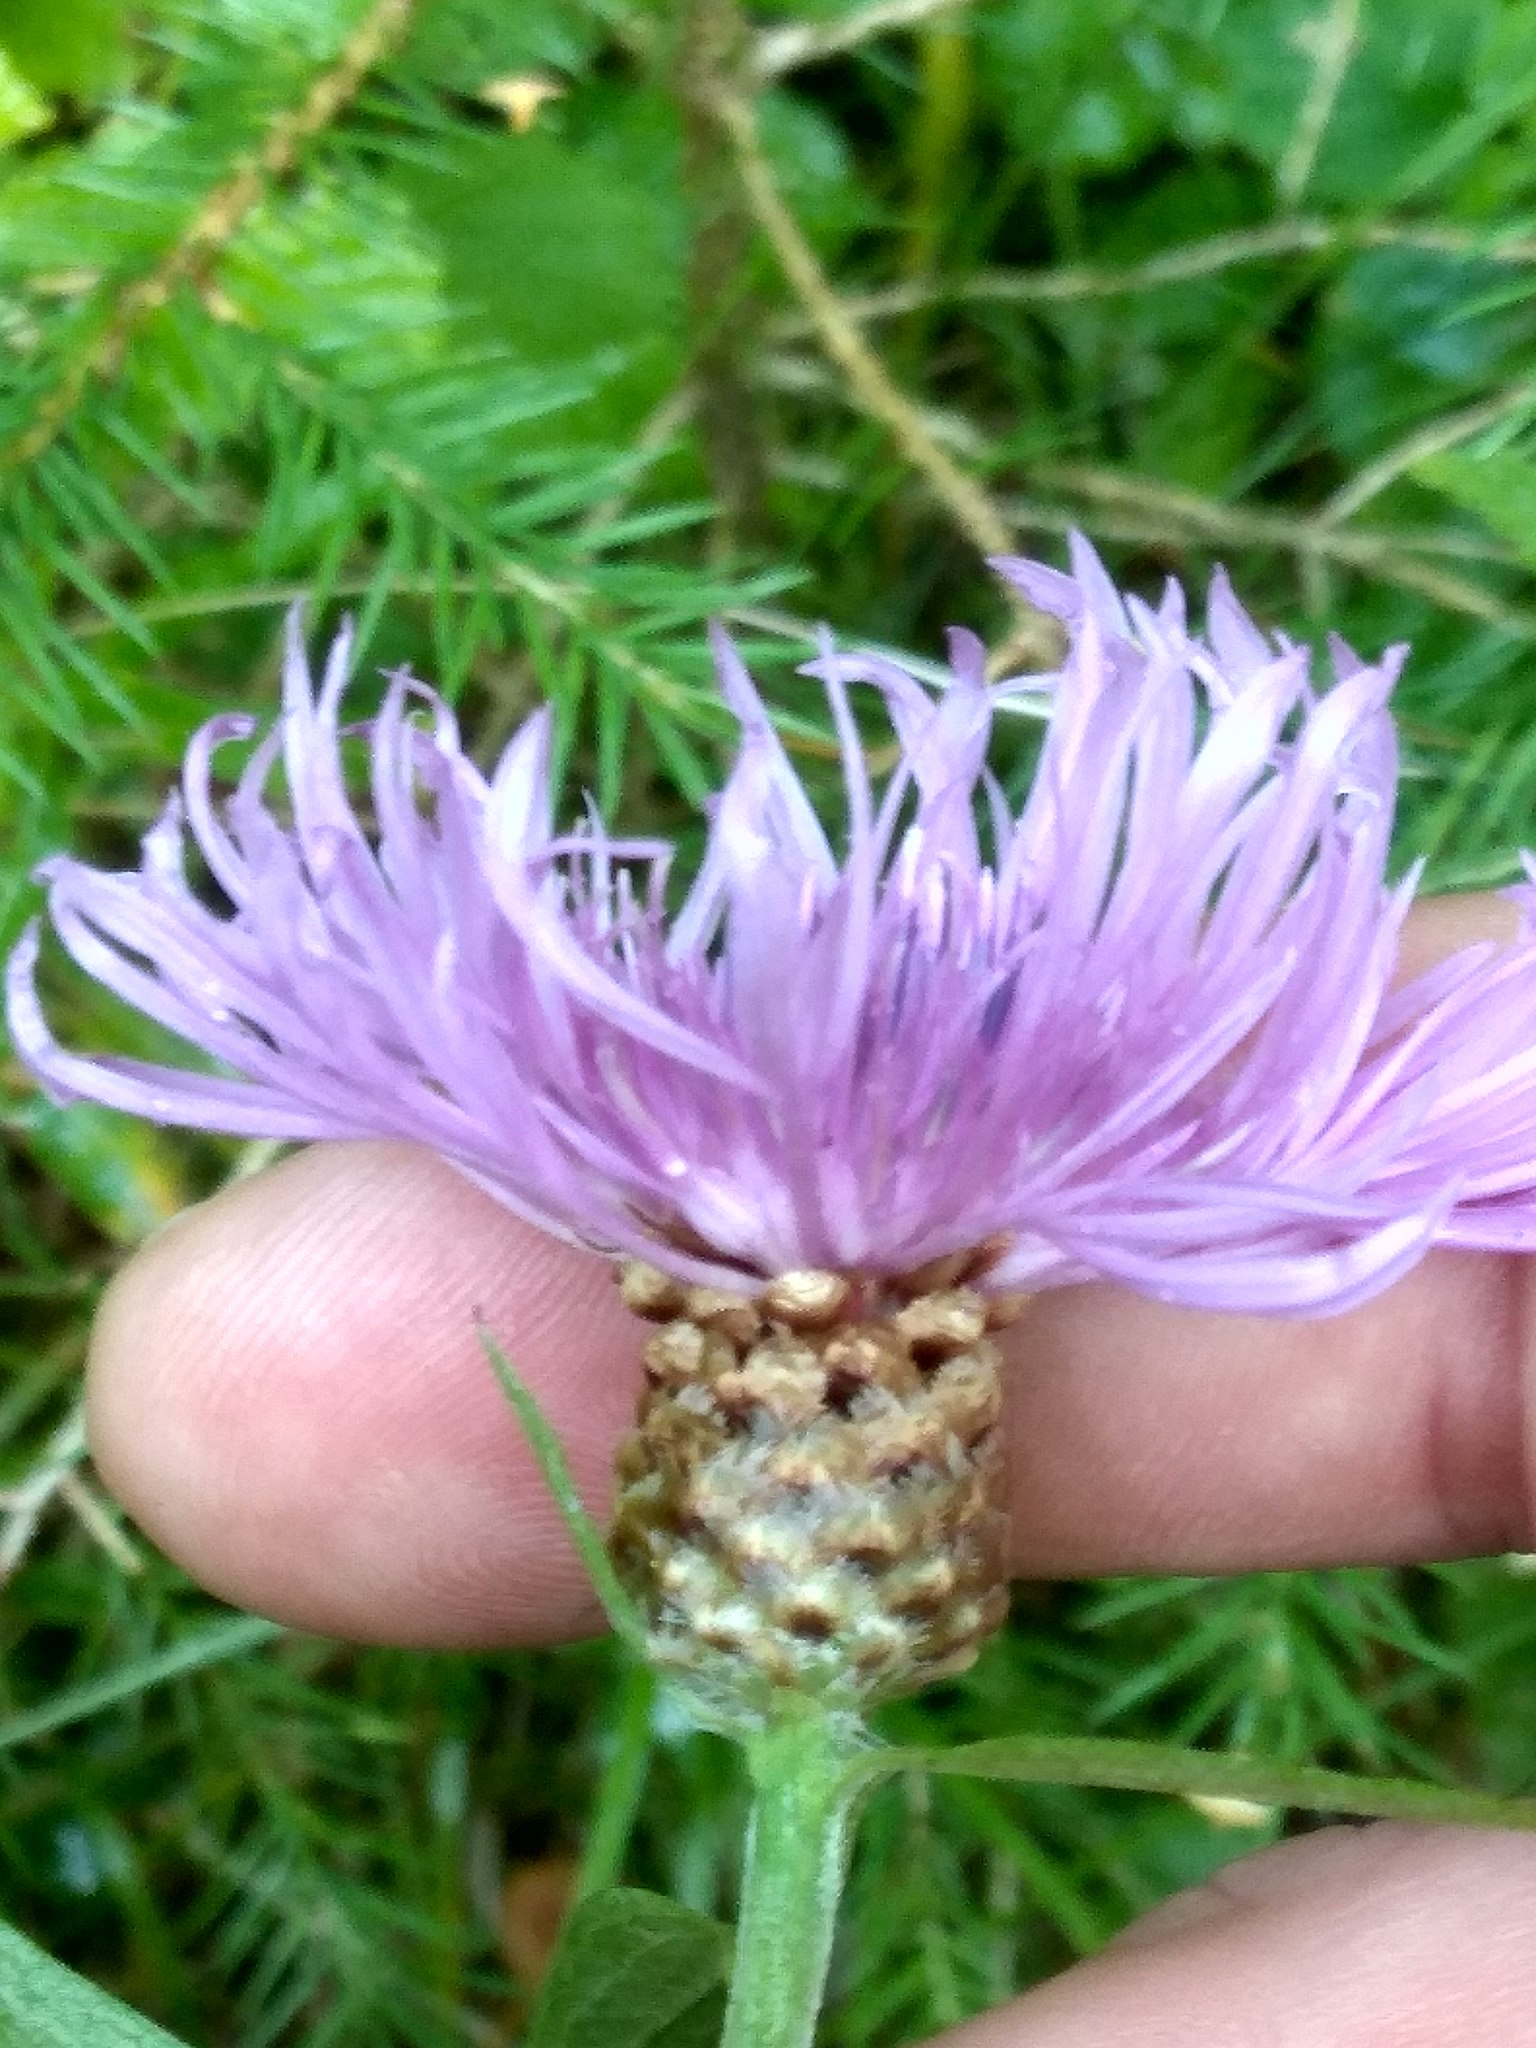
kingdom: Plantae
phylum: Tracheophyta
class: Magnoliopsida
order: Asterales
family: Asteraceae
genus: Centaurea
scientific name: Centaurea jacea
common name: Brown knapweed
